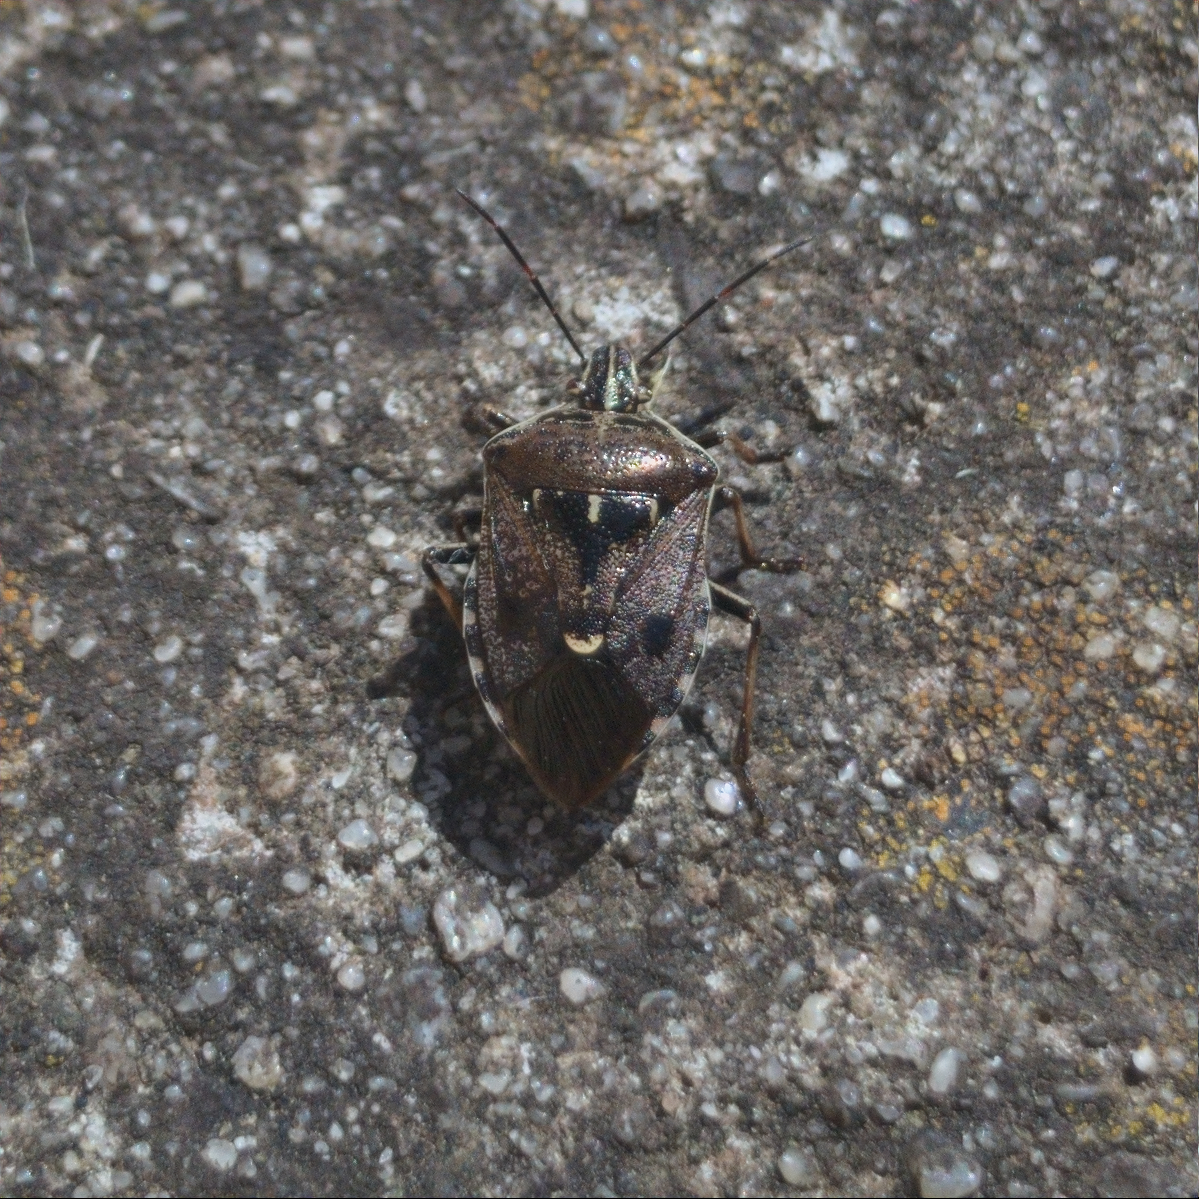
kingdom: Animalia
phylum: Arthropoda
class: Insecta
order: Hemiptera
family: Pentatomidae
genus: Cermatulus
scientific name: Cermatulus nasalis
